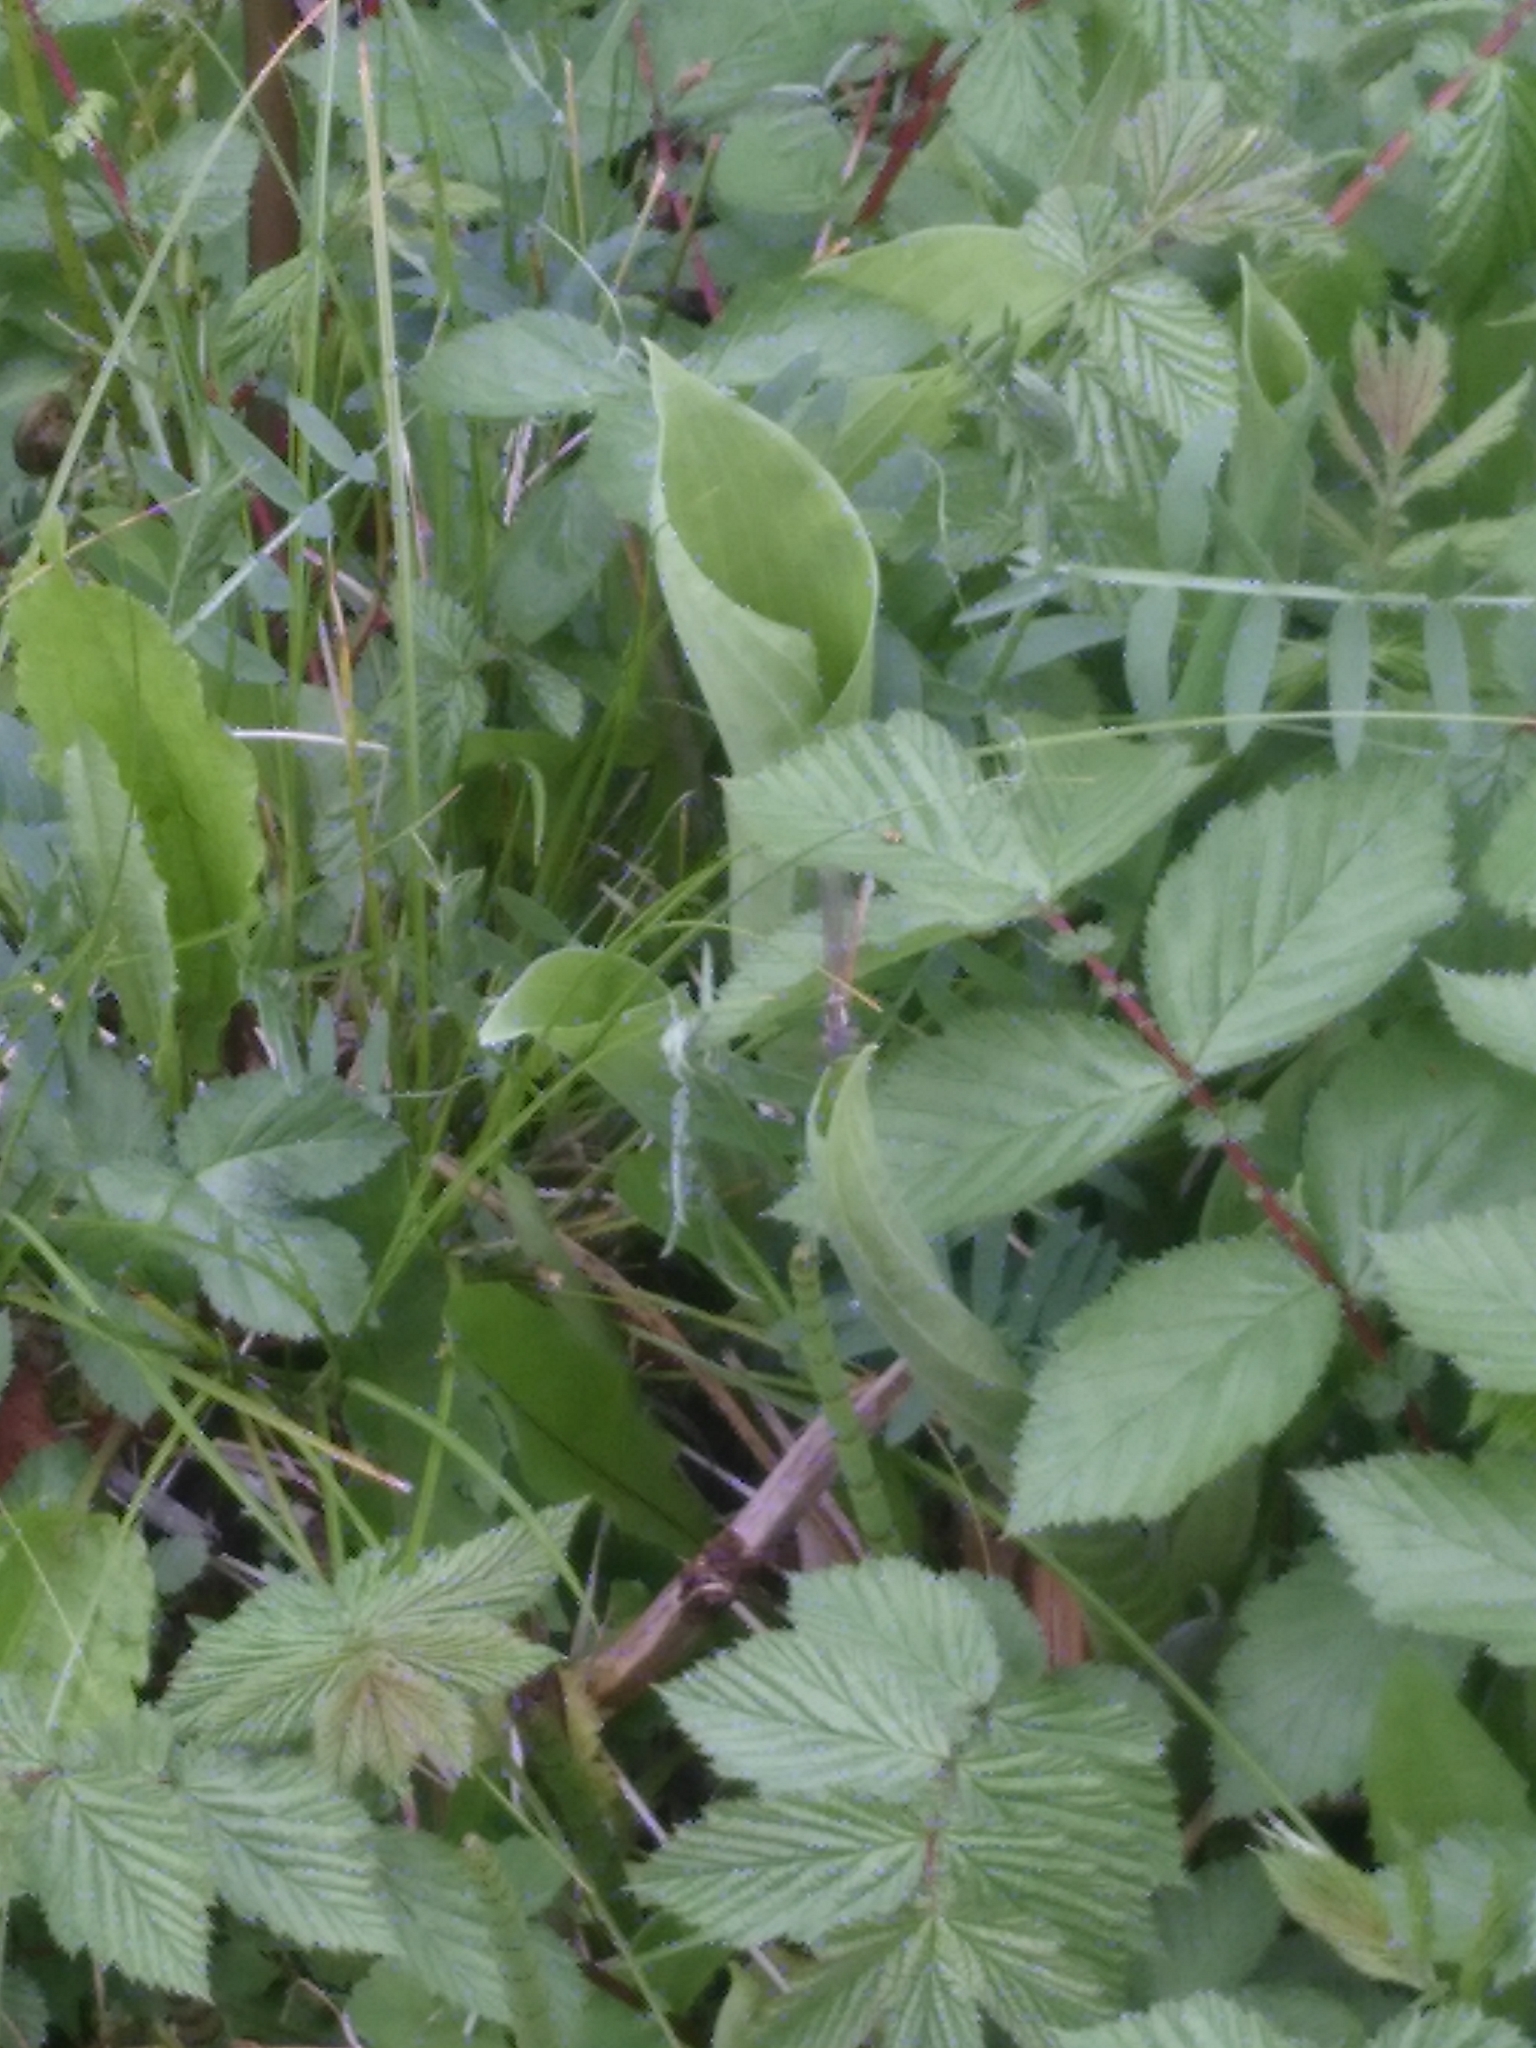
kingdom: Animalia
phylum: Arthropoda
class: Insecta
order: Odonata
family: Coenagrionidae
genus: Pyrrhosoma
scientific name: Pyrrhosoma nymphula
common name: Large red damsel
